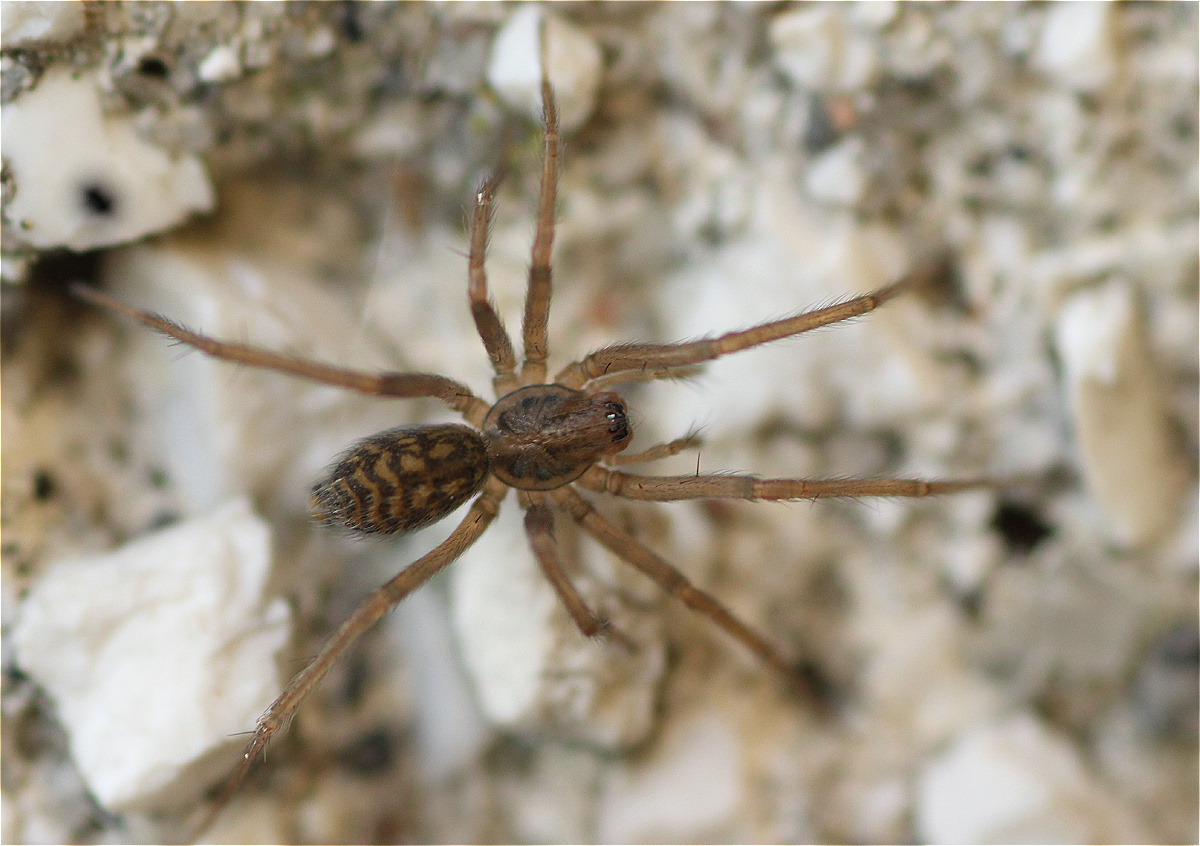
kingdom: Animalia
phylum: Arthropoda
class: Arachnida
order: Araneae
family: Agelenidae
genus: Eratigena
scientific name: Eratigena atrica
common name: Giant house spider
